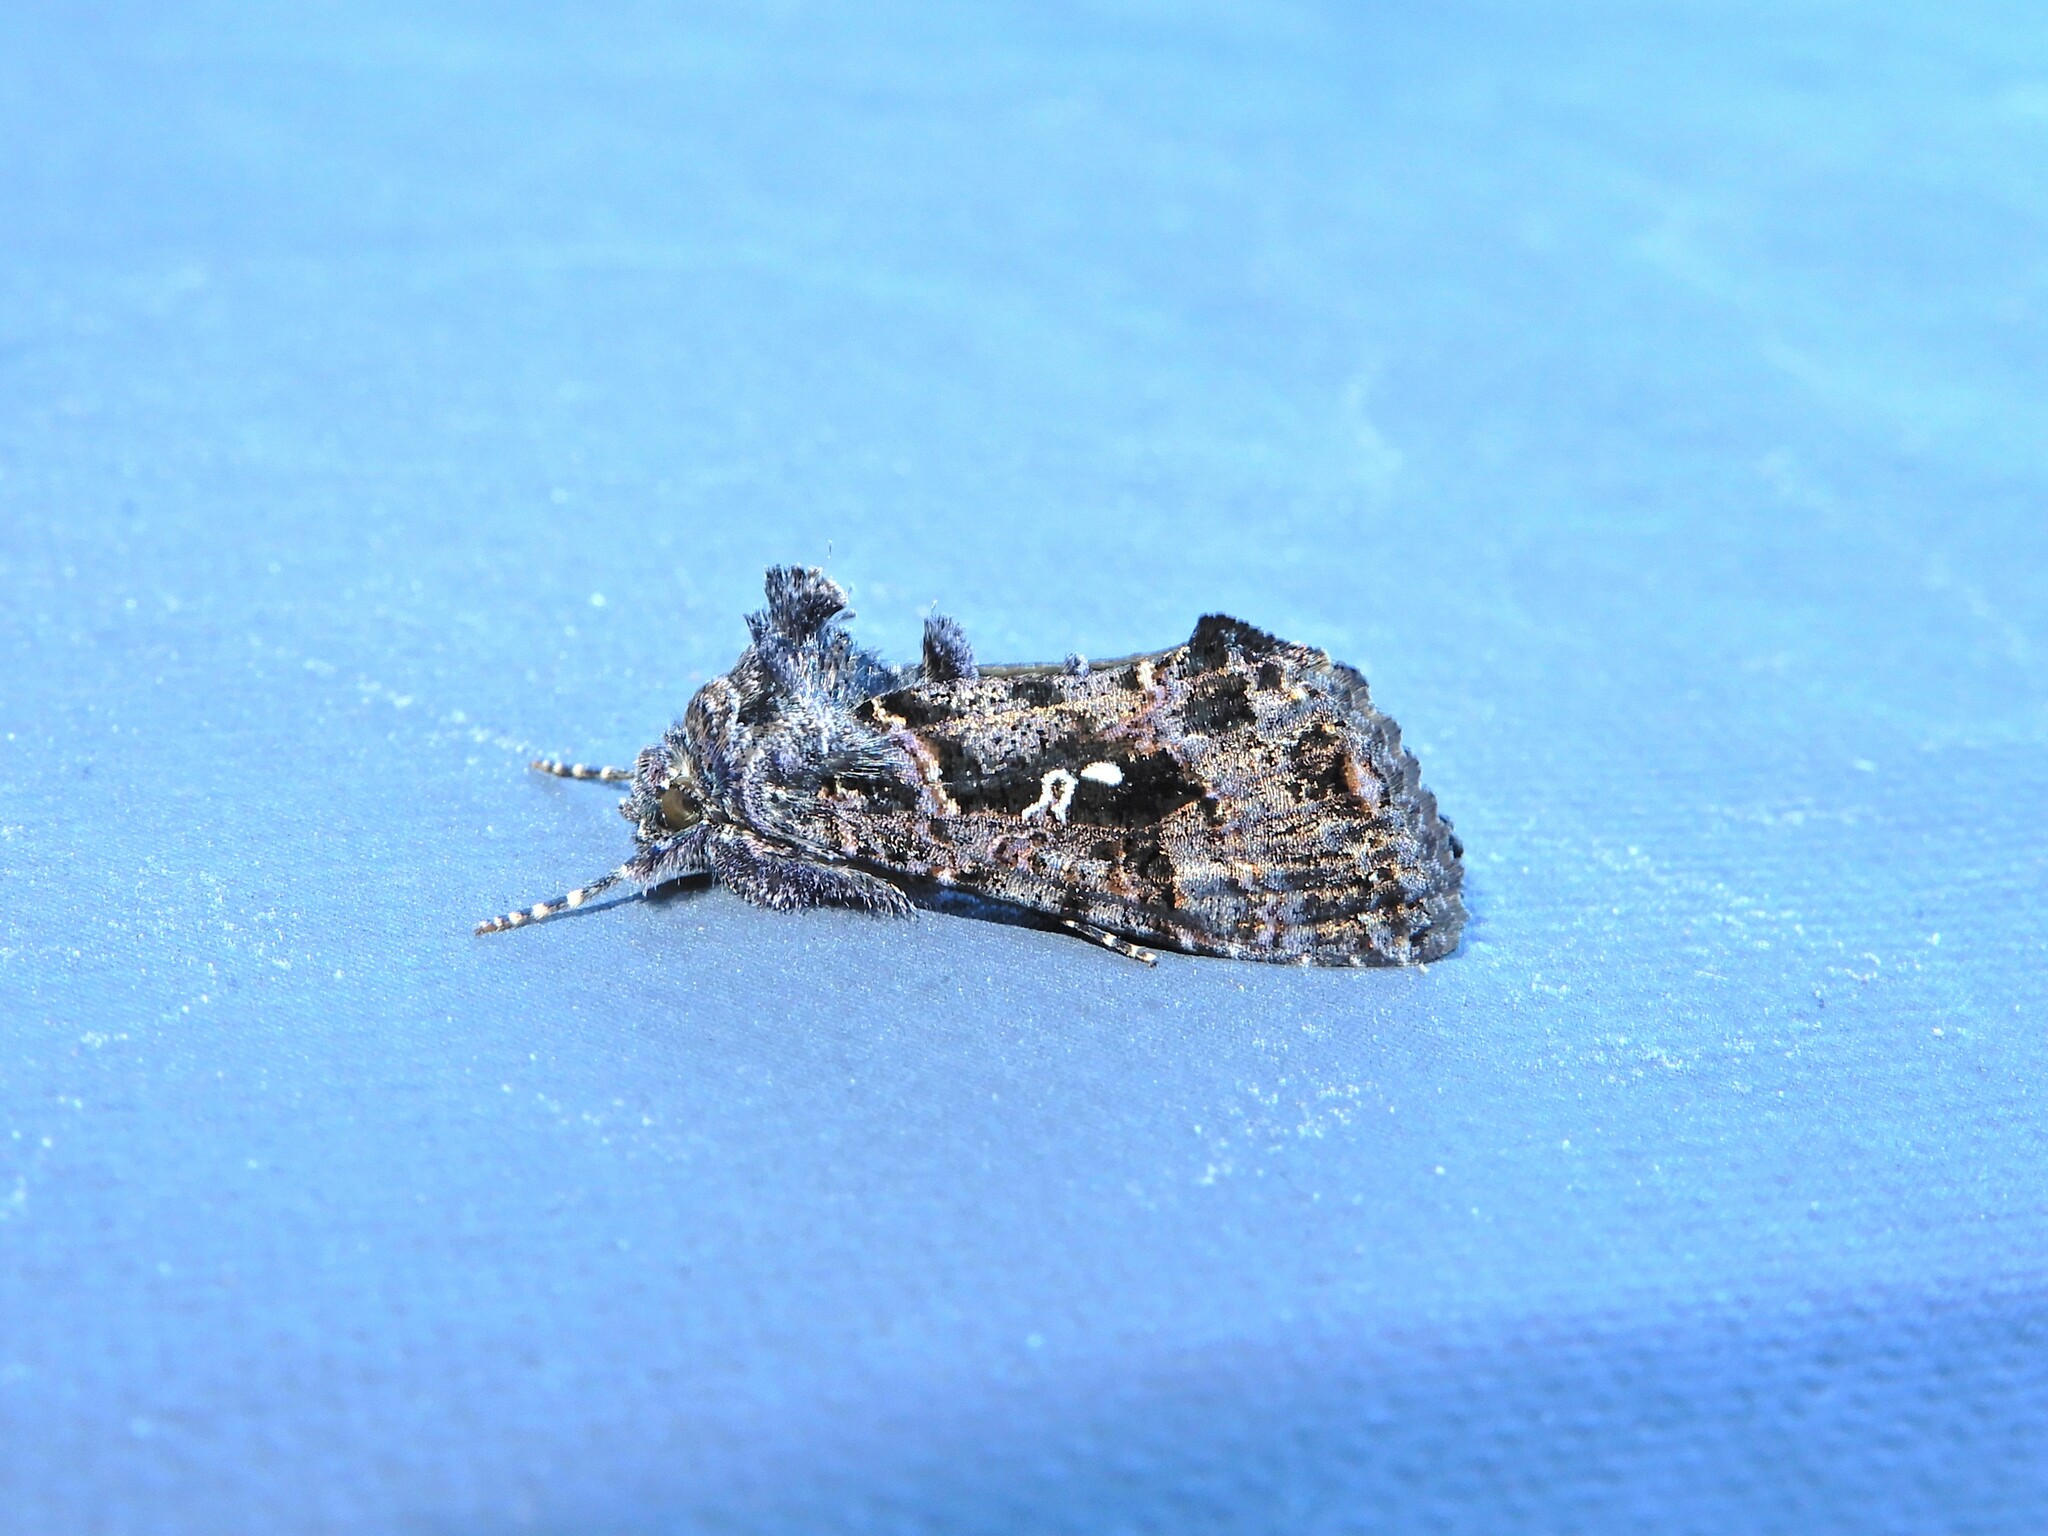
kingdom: Animalia
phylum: Arthropoda
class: Insecta
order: Lepidoptera
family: Noctuidae
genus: Ctenoplusia
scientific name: Ctenoplusia limbirena
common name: Scar bank gem
